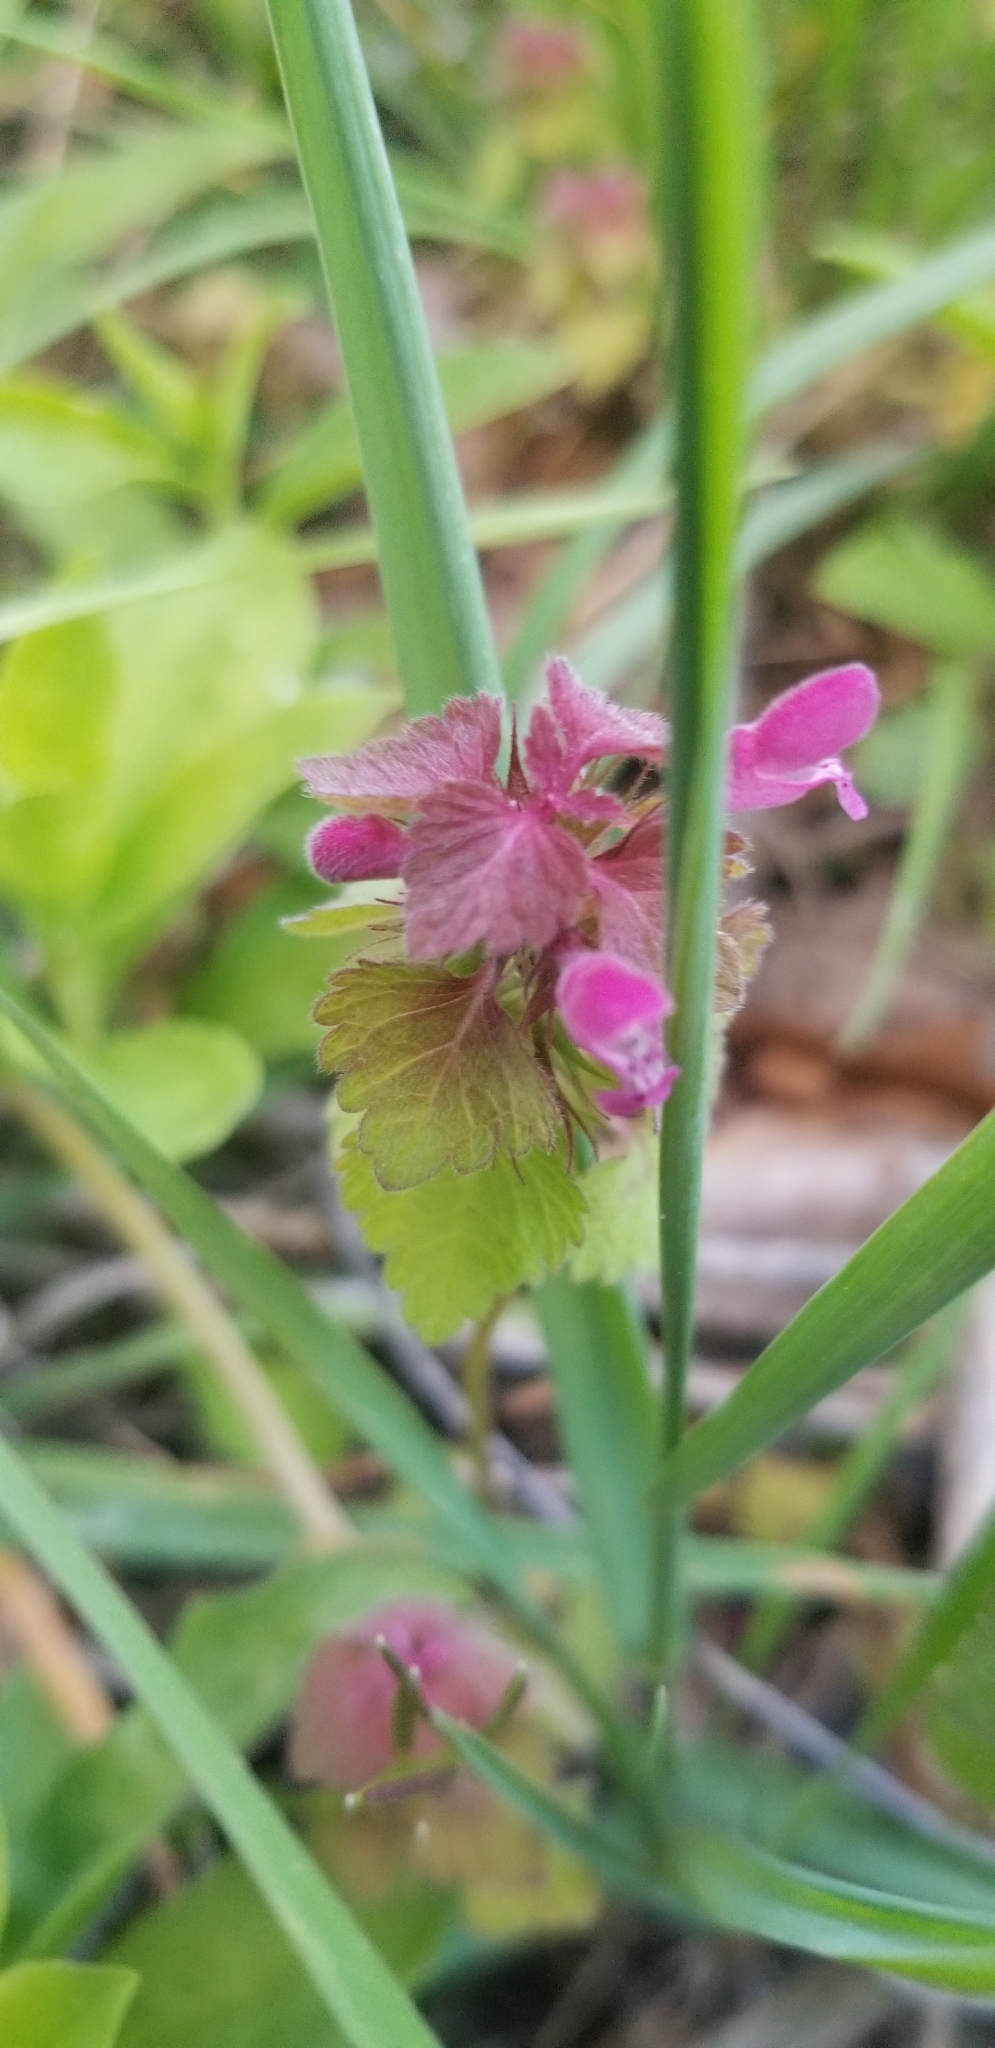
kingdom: Plantae
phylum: Tracheophyta
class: Magnoliopsida
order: Lamiales
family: Lamiaceae
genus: Lamium
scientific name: Lamium purpureum
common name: Red dead-nettle
